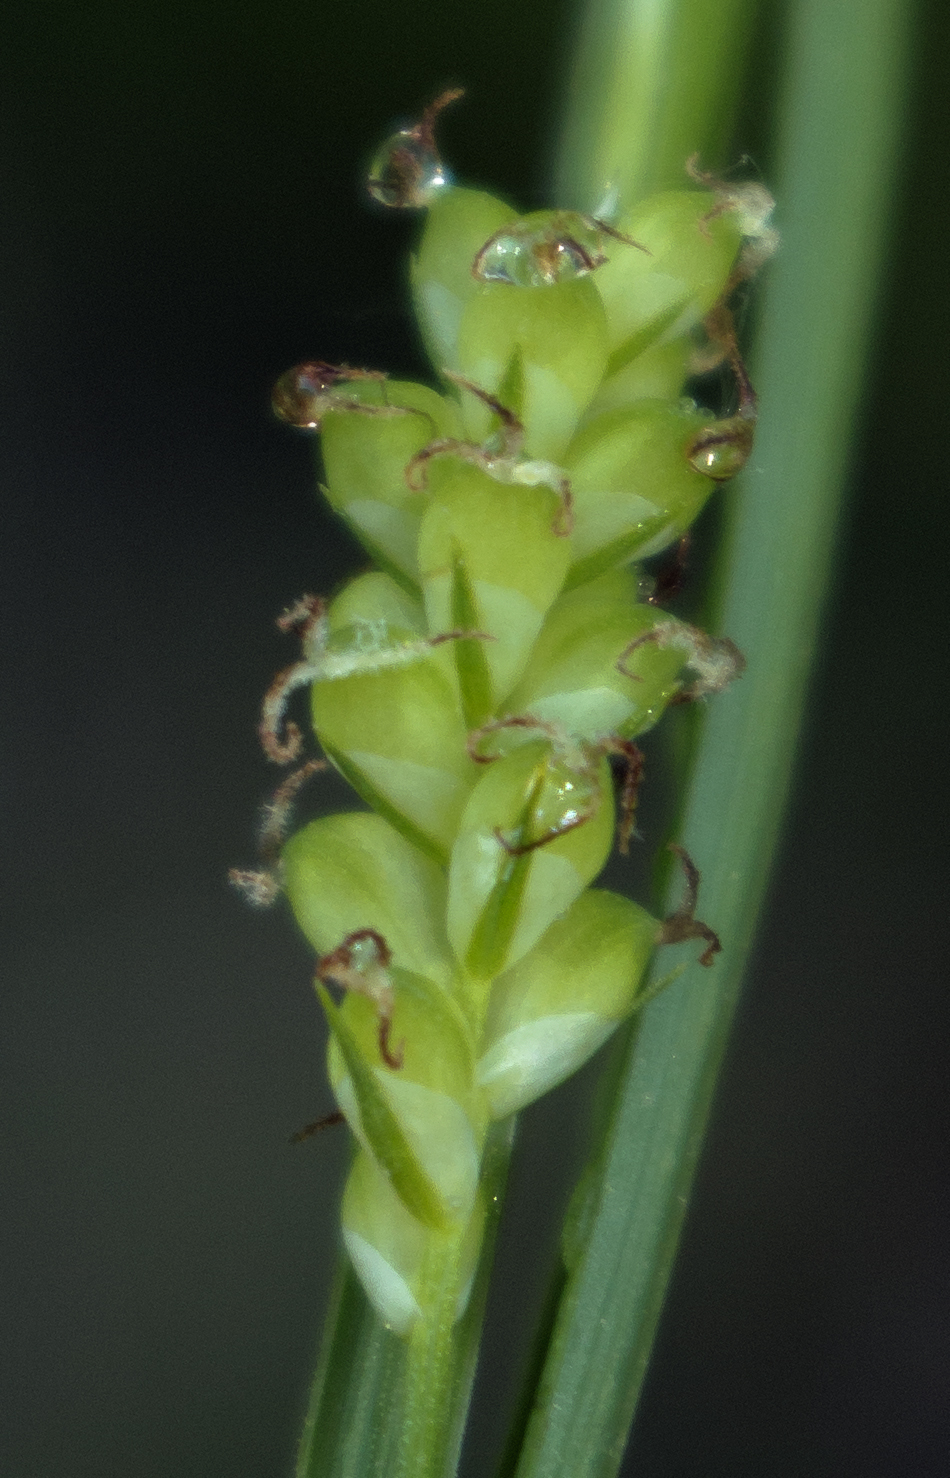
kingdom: Plantae
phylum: Tracheophyta
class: Liliopsida
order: Poales
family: Cyperaceae
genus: Carex
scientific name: Carex blanda
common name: Bland sedge
